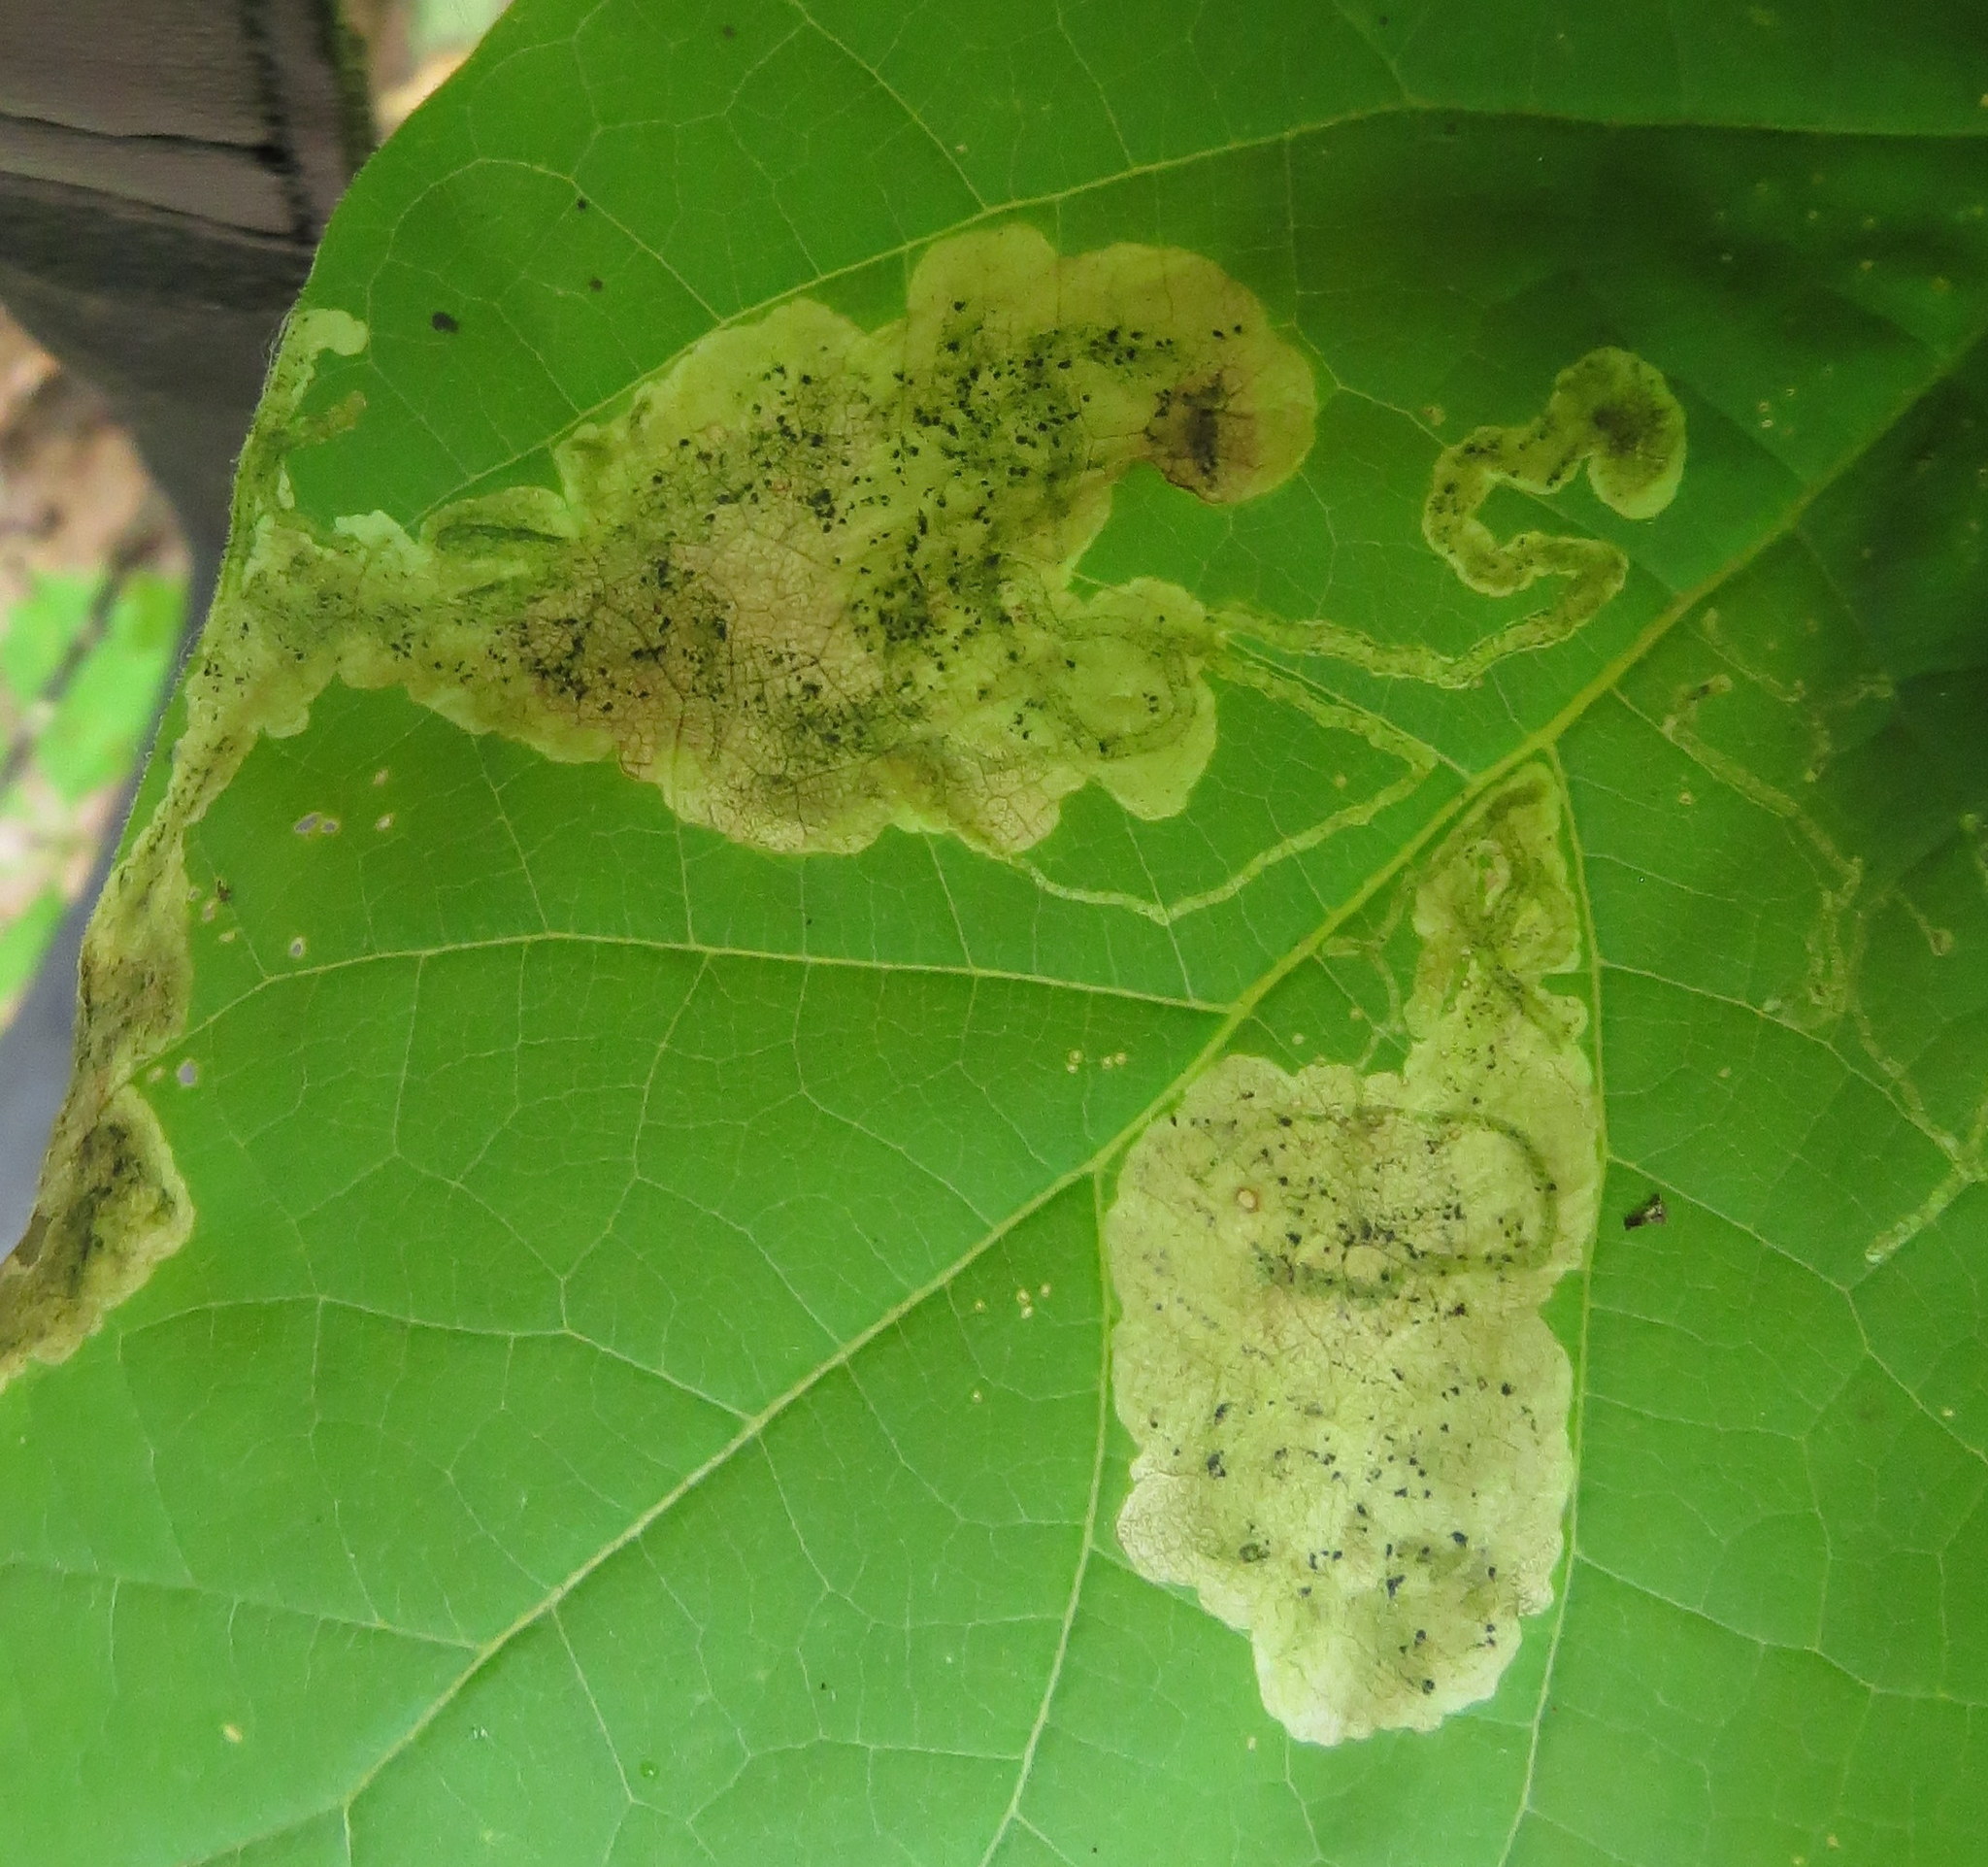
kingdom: Animalia
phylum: Arthropoda
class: Insecta
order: Diptera
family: Agromyzidae
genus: Amauromyza
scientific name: Amauromyza pleuralis
